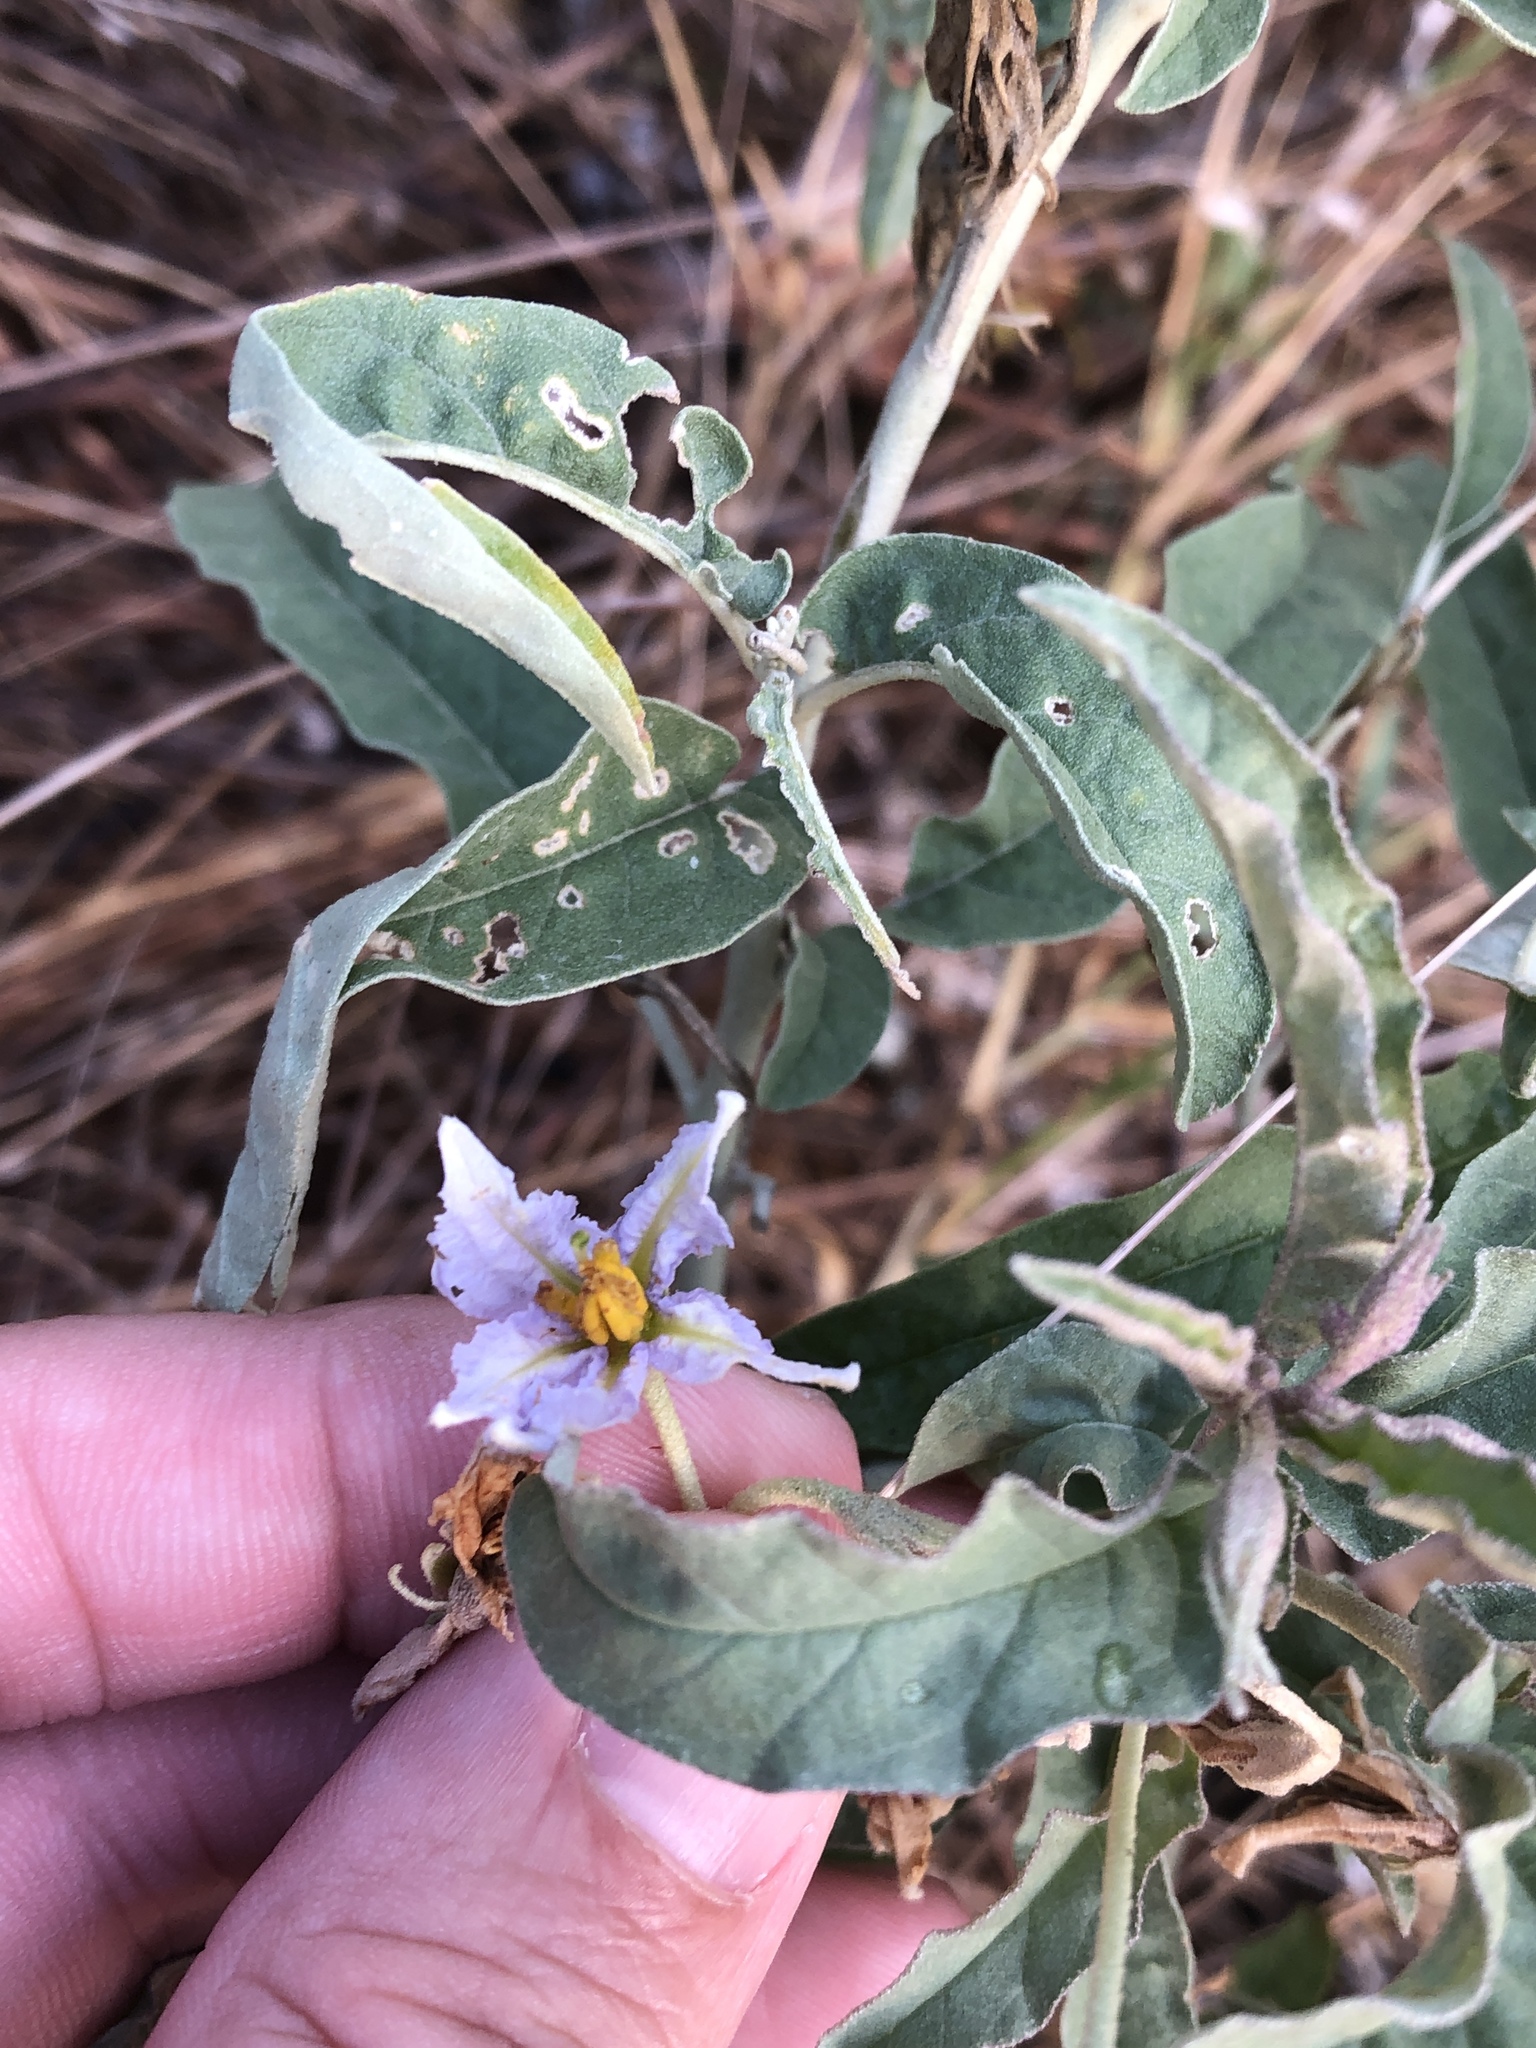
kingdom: Plantae
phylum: Tracheophyta
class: Magnoliopsida
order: Solanales
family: Solanaceae
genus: Solanum
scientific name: Solanum elaeagnifolium
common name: Silverleaf nightshade
